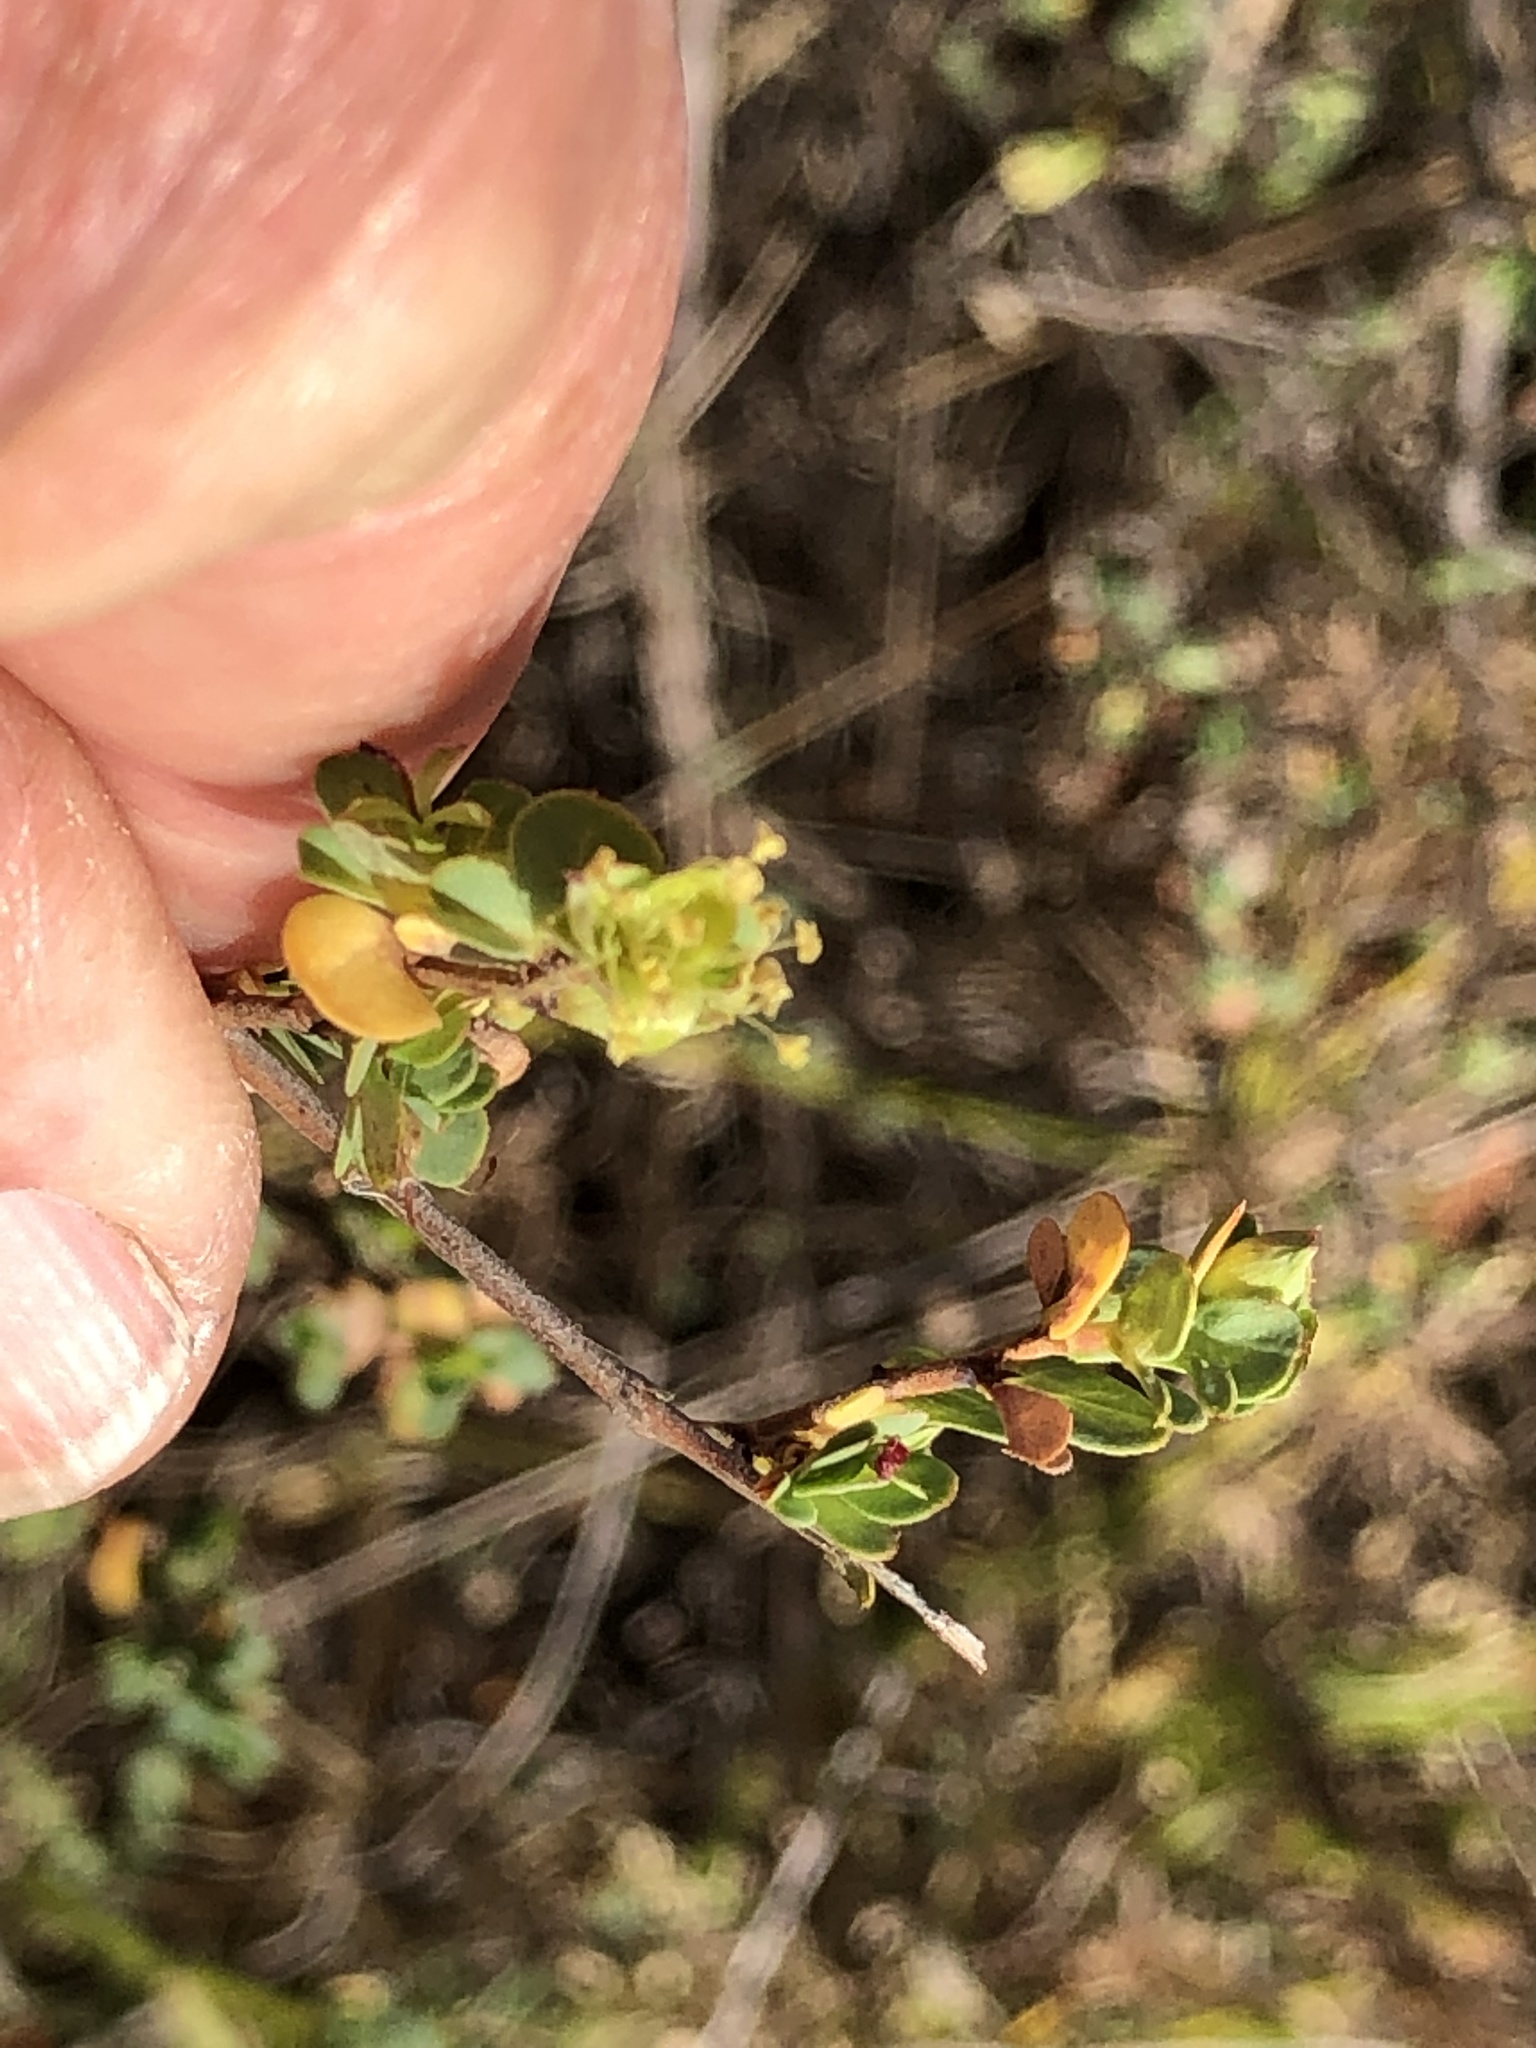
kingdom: Plantae
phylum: Tracheophyta
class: Magnoliopsida
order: Rosales
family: Rosaceae
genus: Cliffortia
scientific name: Cliffortia obcordata
